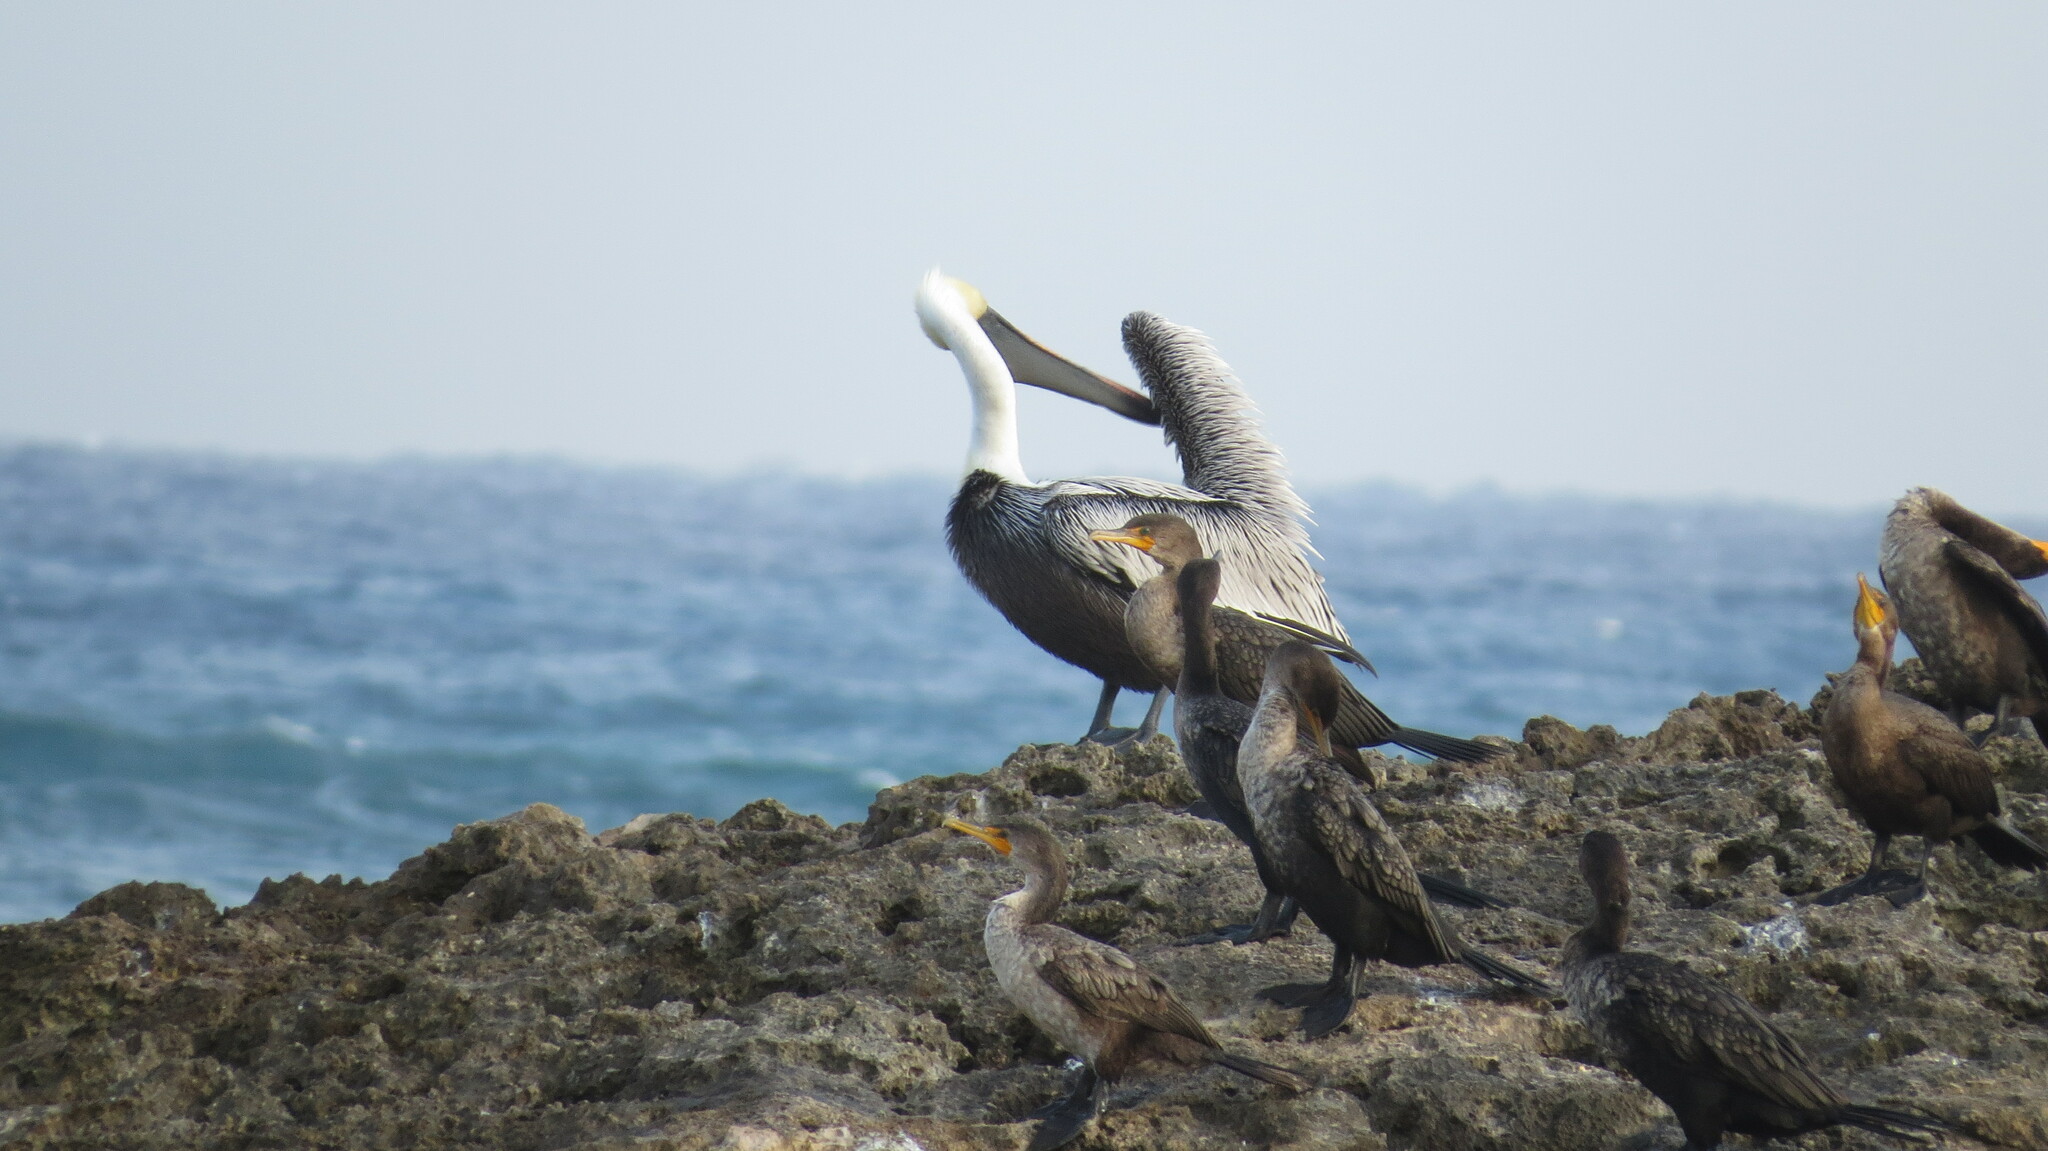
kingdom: Animalia
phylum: Chordata
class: Aves
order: Pelecaniformes
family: Pelecanidae
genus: Pelecanus
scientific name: Pelecanus occidentalis
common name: Brown pelican
